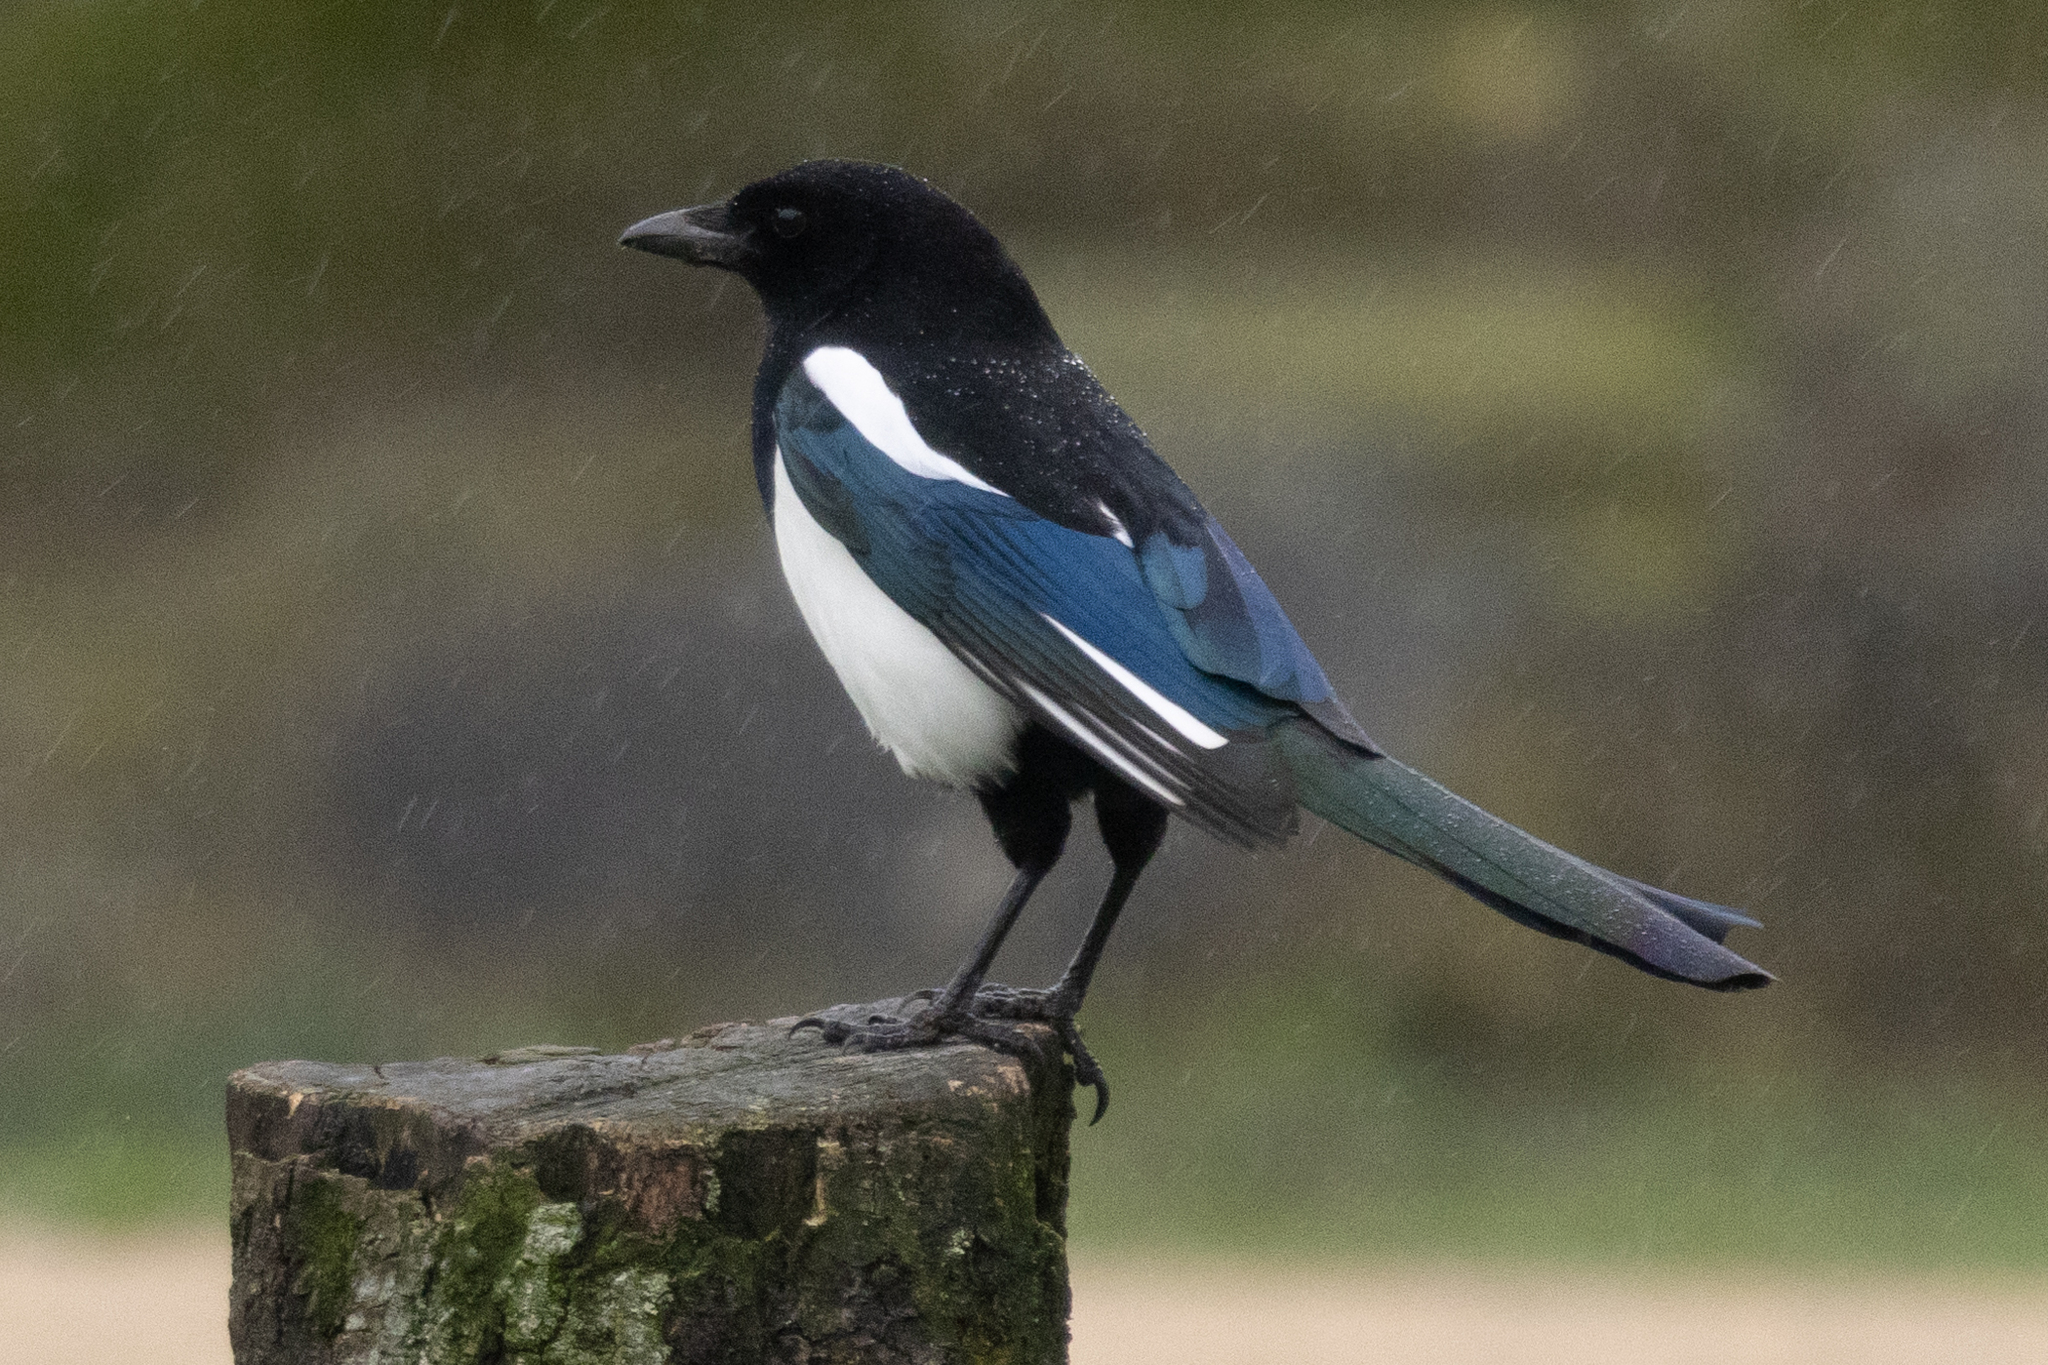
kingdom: Animalia
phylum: Chordata
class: Aves
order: Passeriformes
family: Corvidae
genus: Pica
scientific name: Pica pica
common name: Eurasian magpie
